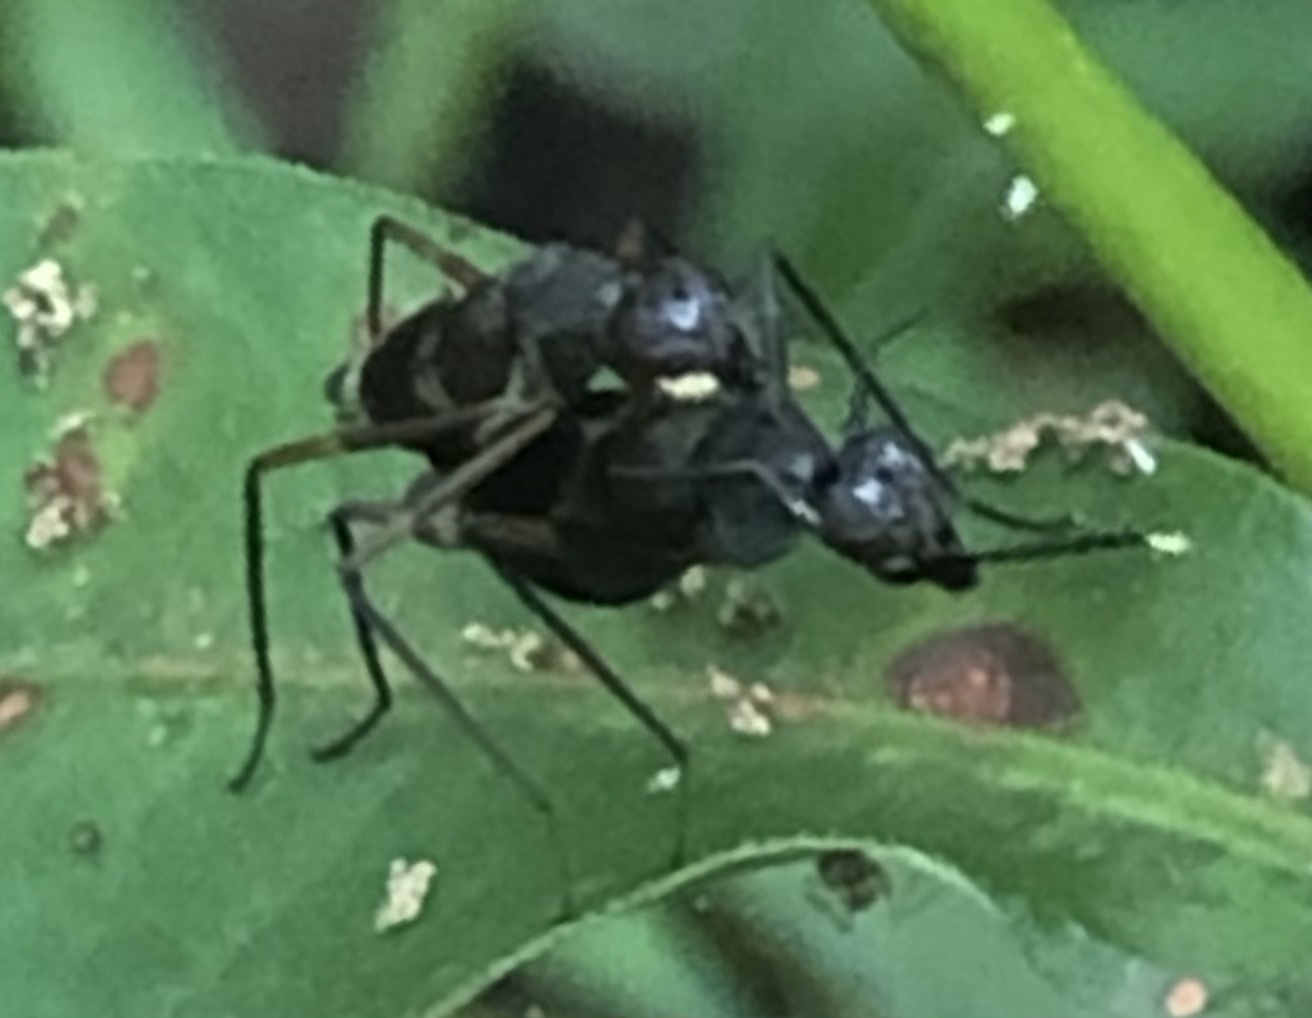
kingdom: Animalia
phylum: Arthropoda
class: Insecta
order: Diptera
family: Micropezidae
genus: Taeniaptera
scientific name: Taeniaptera trivittata
